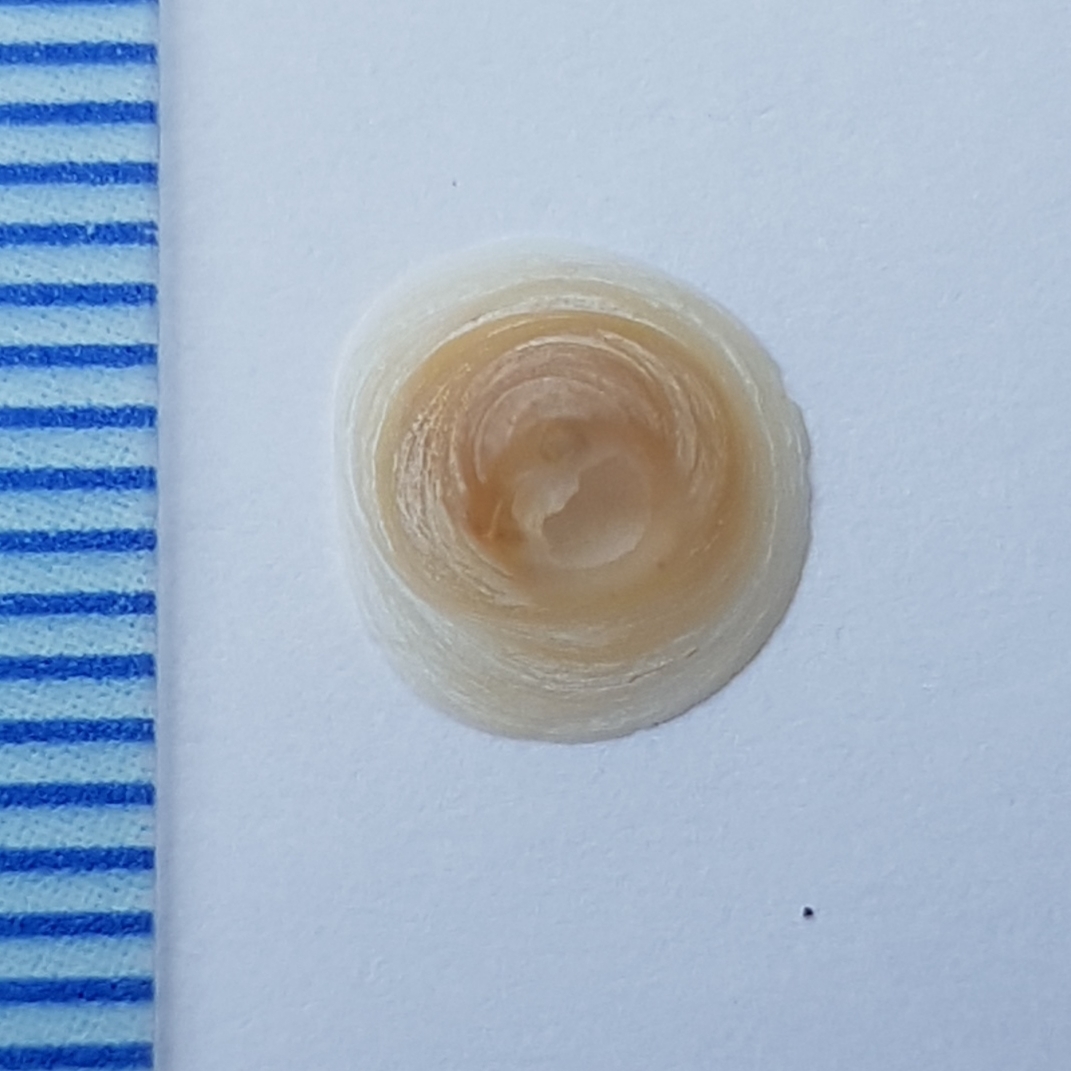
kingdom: Animalia
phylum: Mollusca
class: Gastropoda
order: Littorinimorpha
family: Calyptraeidae
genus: Calyptraea
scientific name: Calyptraea chinensis
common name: Chinaman's hat
